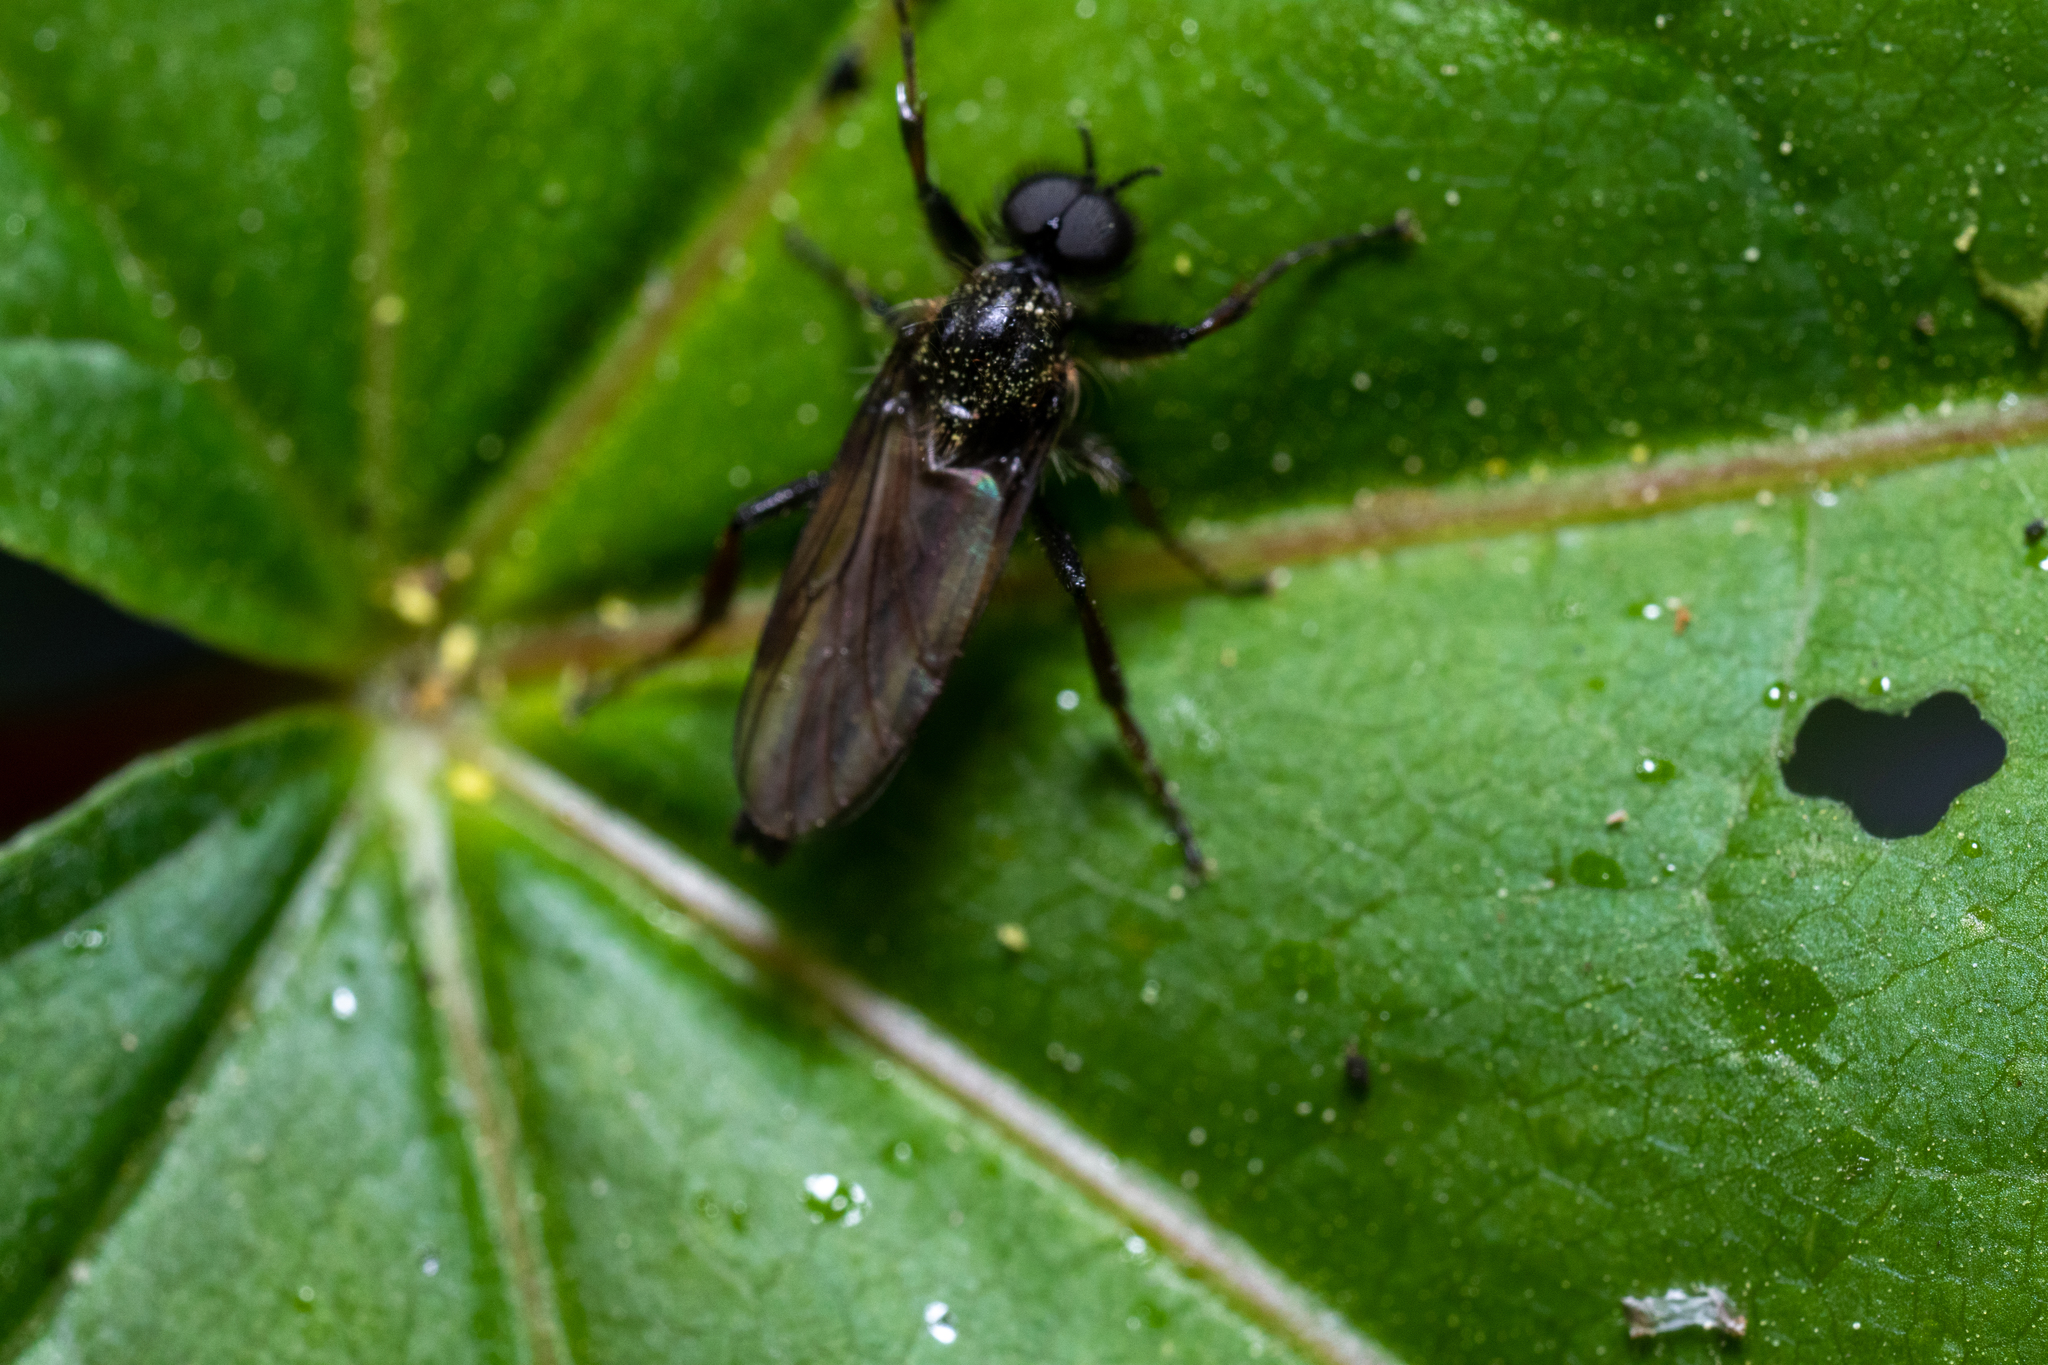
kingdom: Animalia
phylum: Arthropoda
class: Insecta
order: Diptera
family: Bibionidae
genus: Bibio
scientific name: Bibio marci
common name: St marks fly
